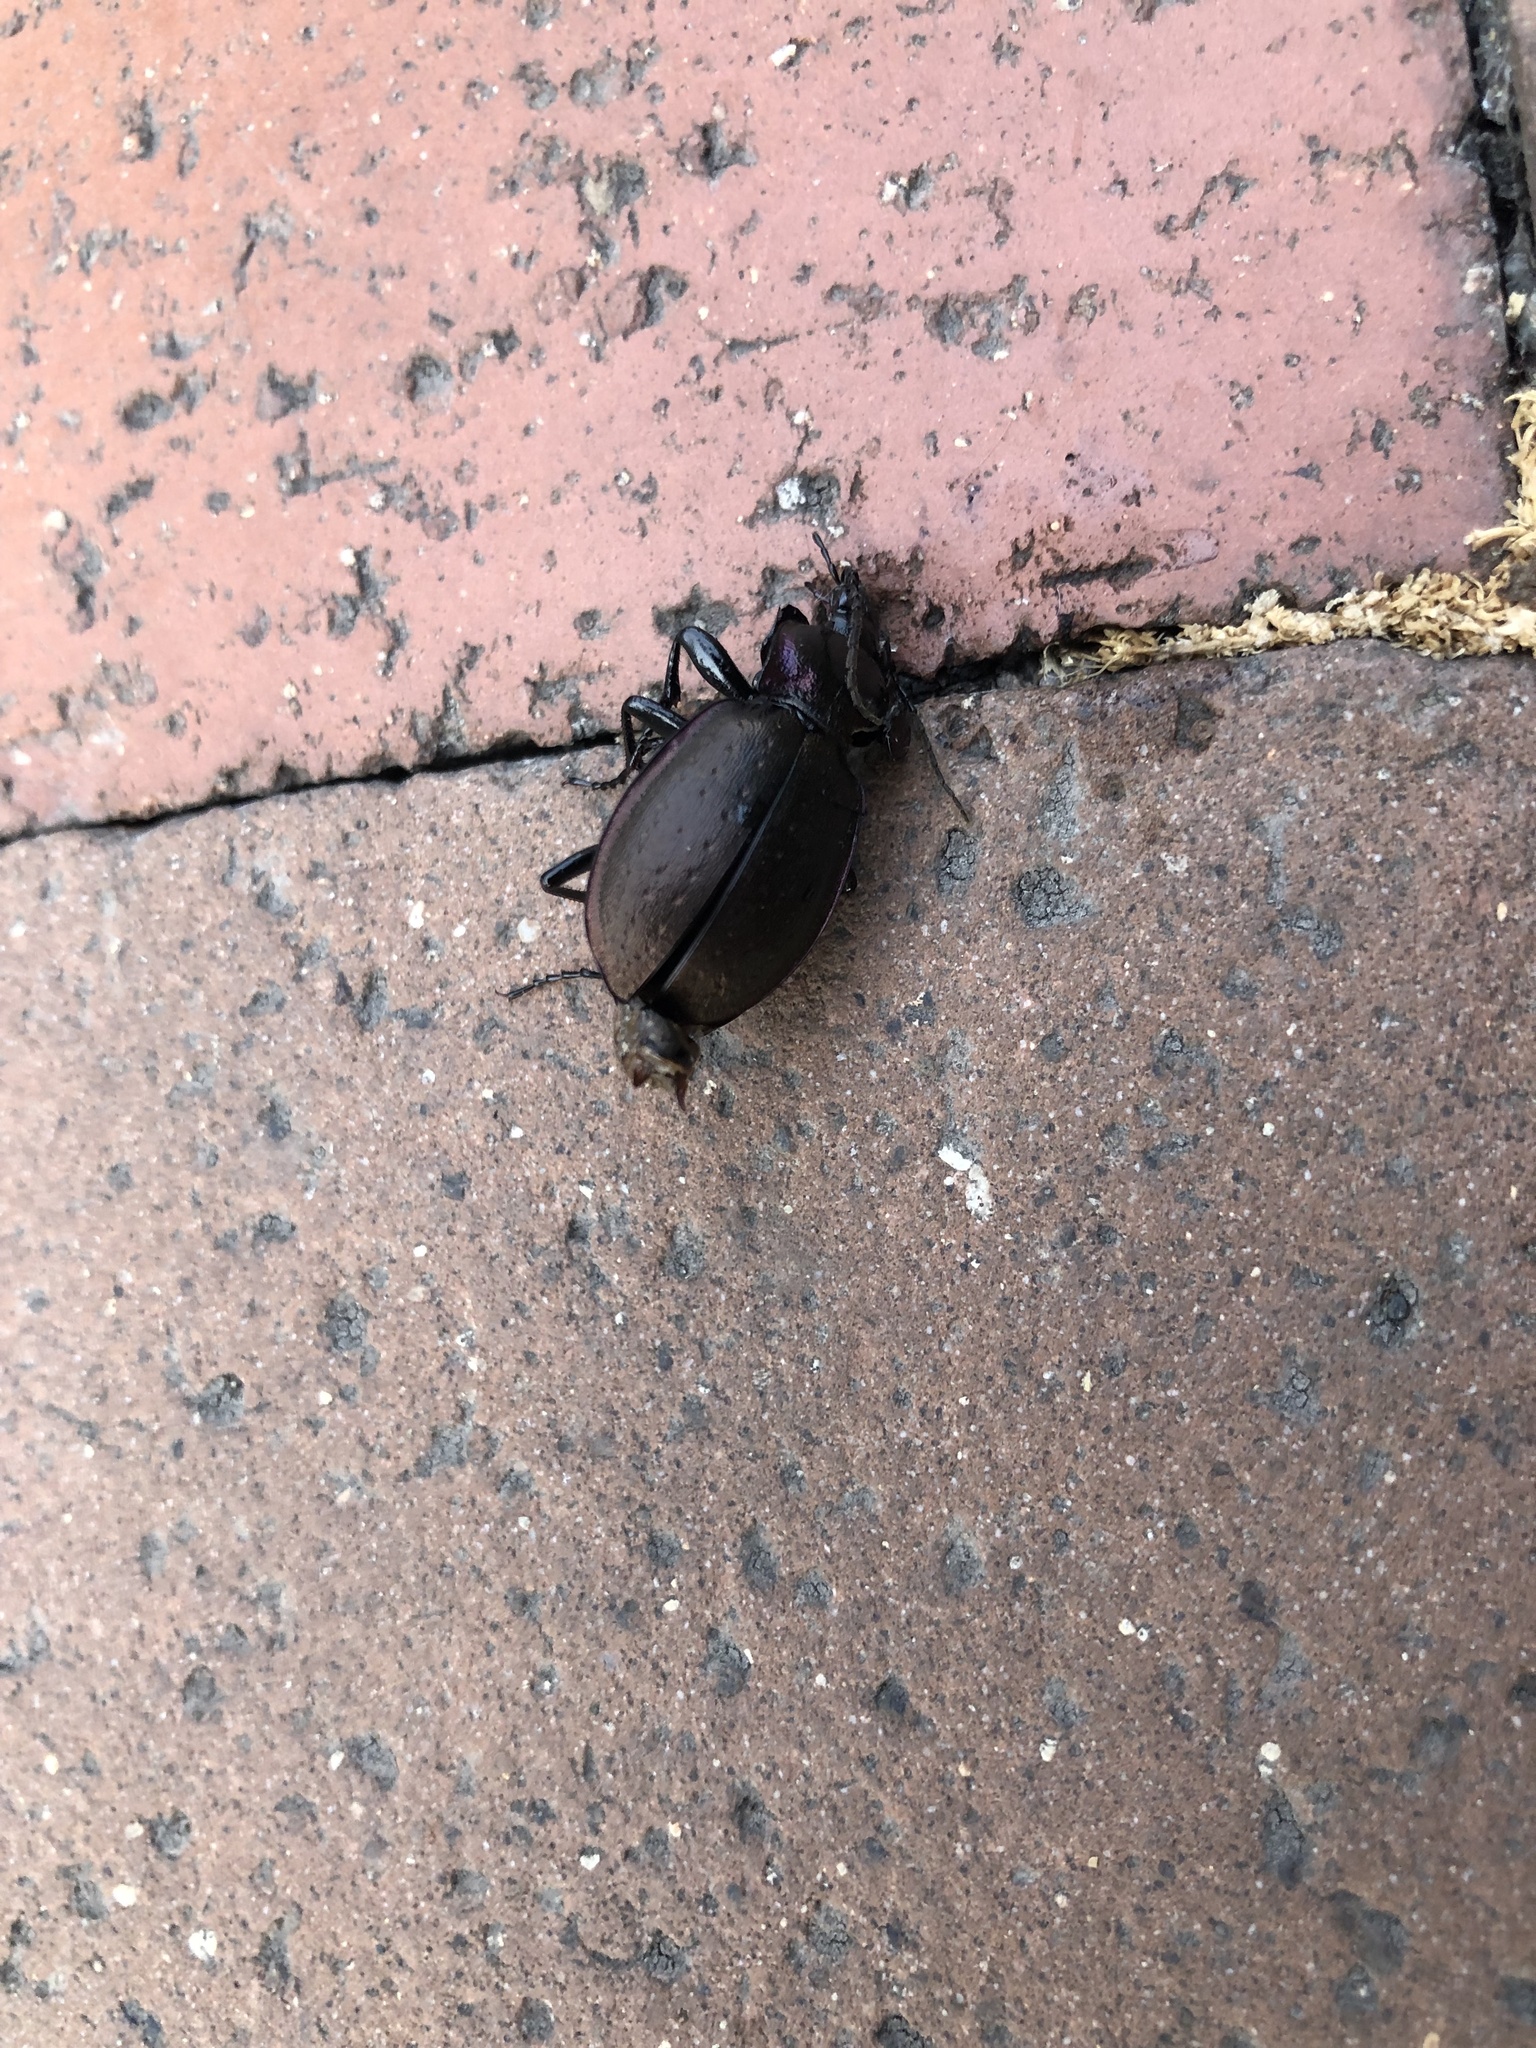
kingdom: Animalia
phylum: Arthropoda
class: Insecta
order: Coleoptera
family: Carabidae
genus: Carabus
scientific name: Carabus nemoralis
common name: European ground beetle
